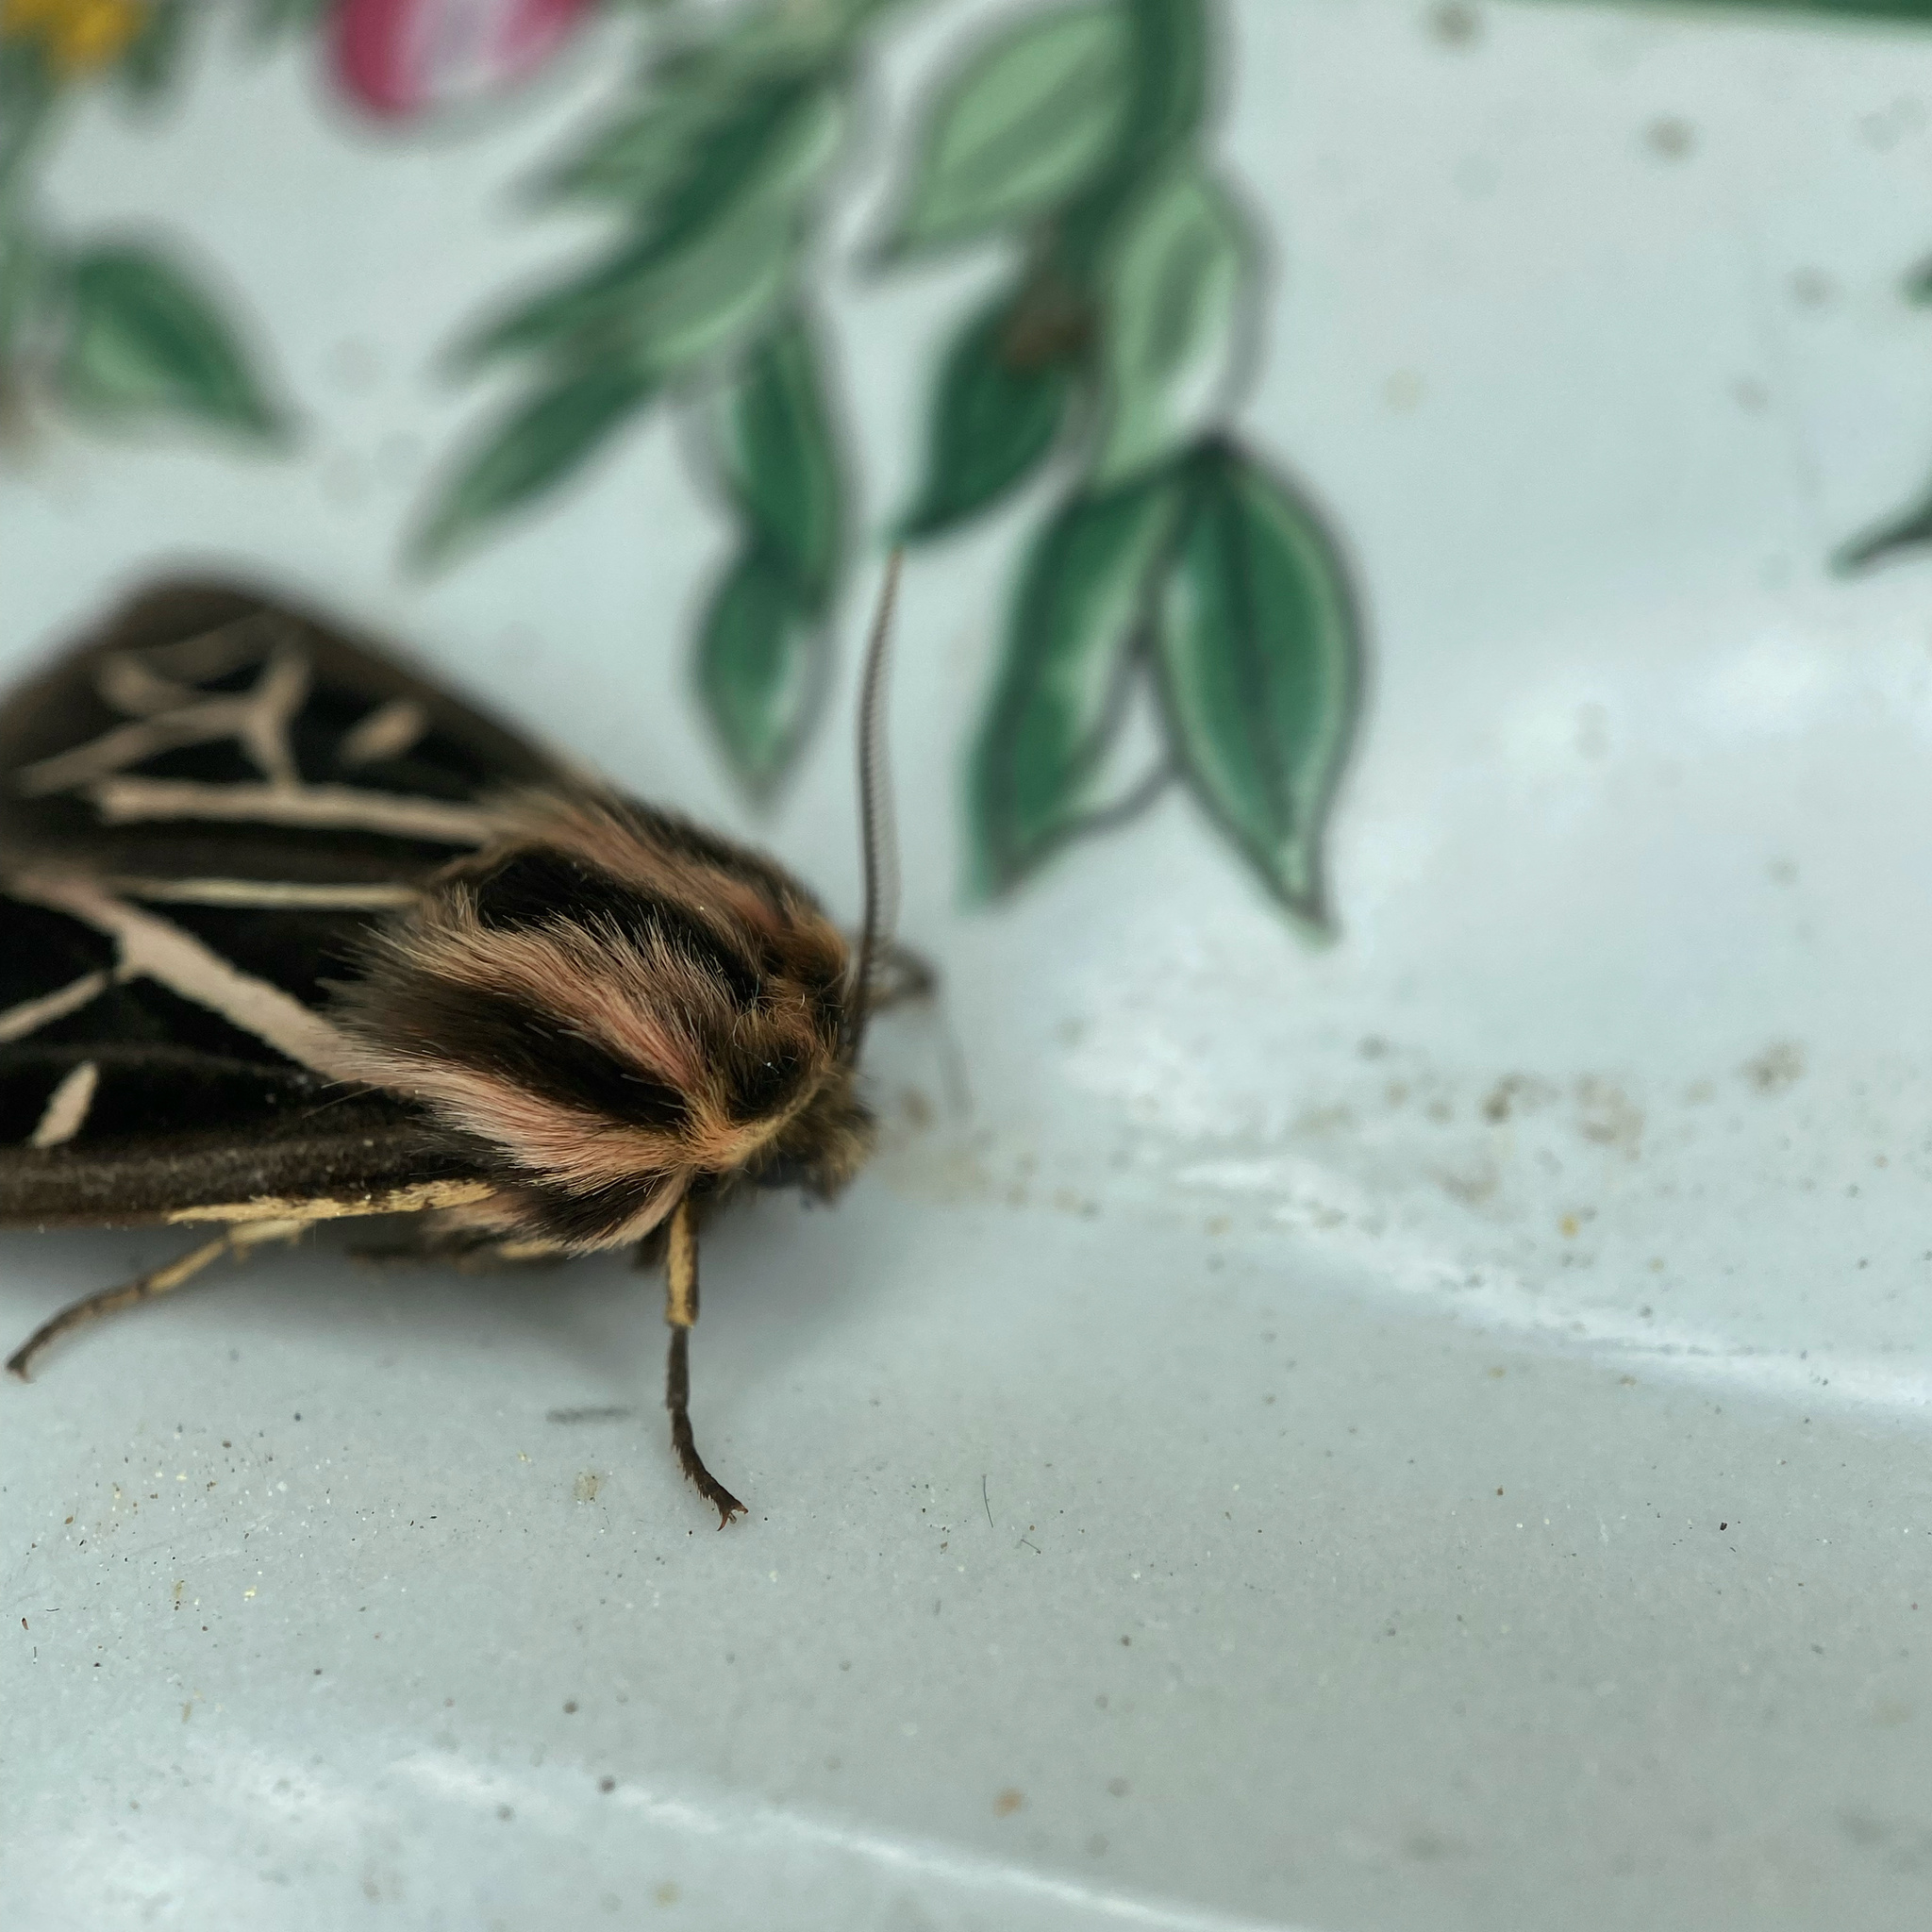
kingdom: Animalia
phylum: Arthropoda
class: Insecta
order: Lepidoptera
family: Erebidae
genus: Apantesis
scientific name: Apantesis
